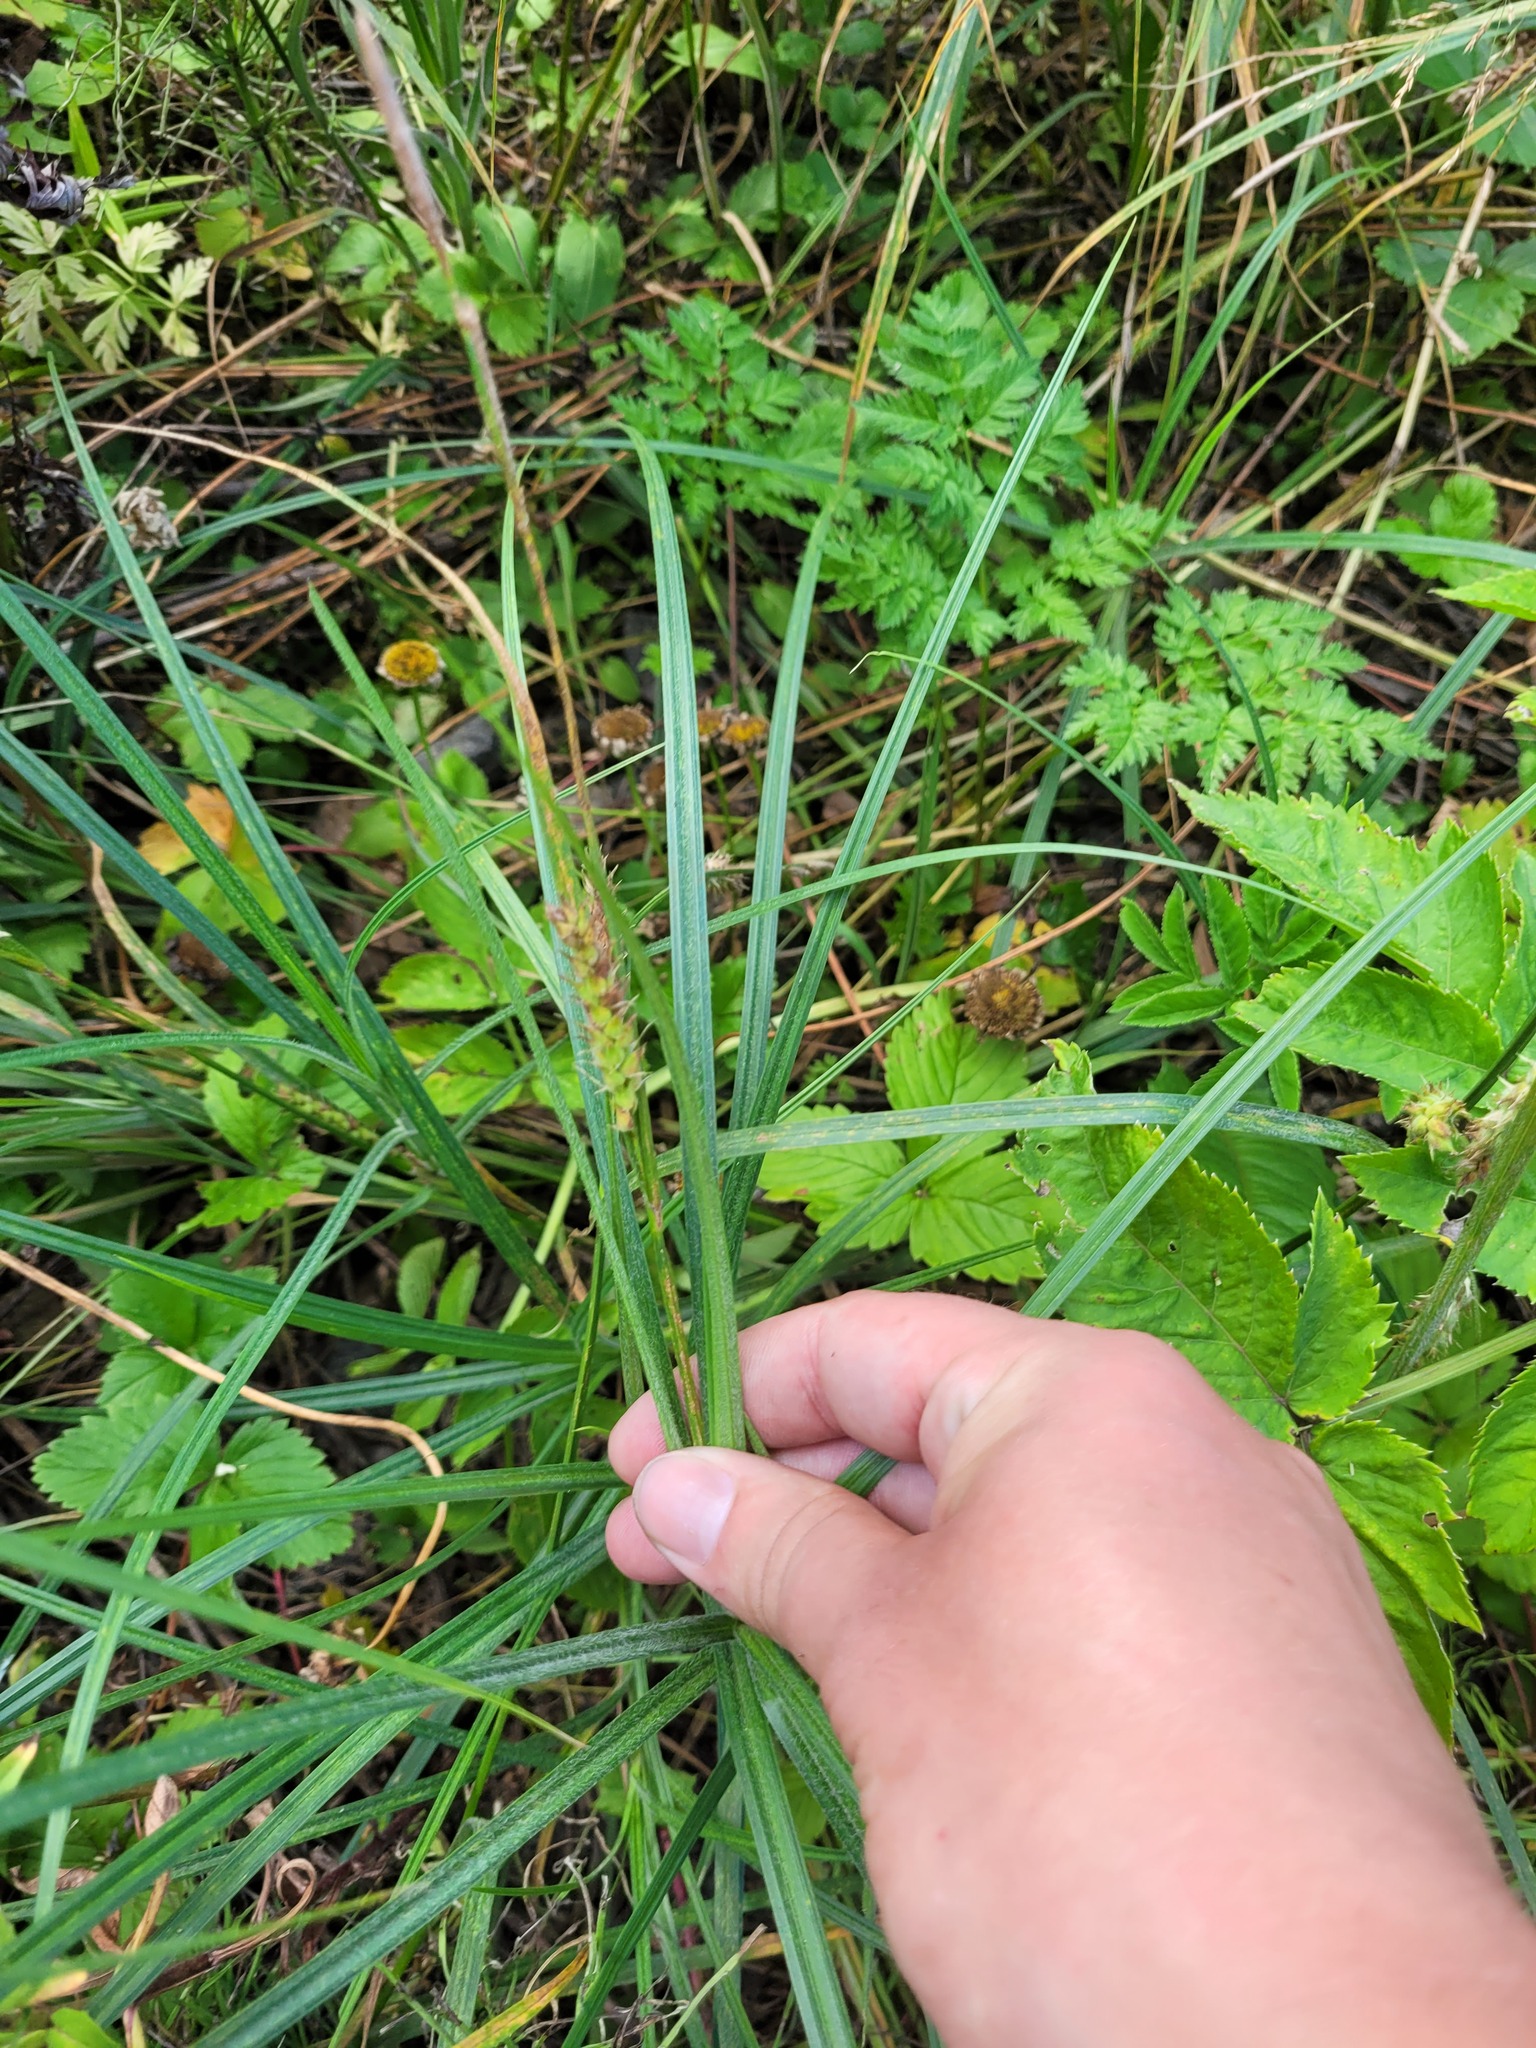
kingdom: Plantae
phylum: Tracheophyta
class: Liliopsida
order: Poales
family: Cyperaceae
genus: Carex
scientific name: Carex hirta
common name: Hairy sedge
